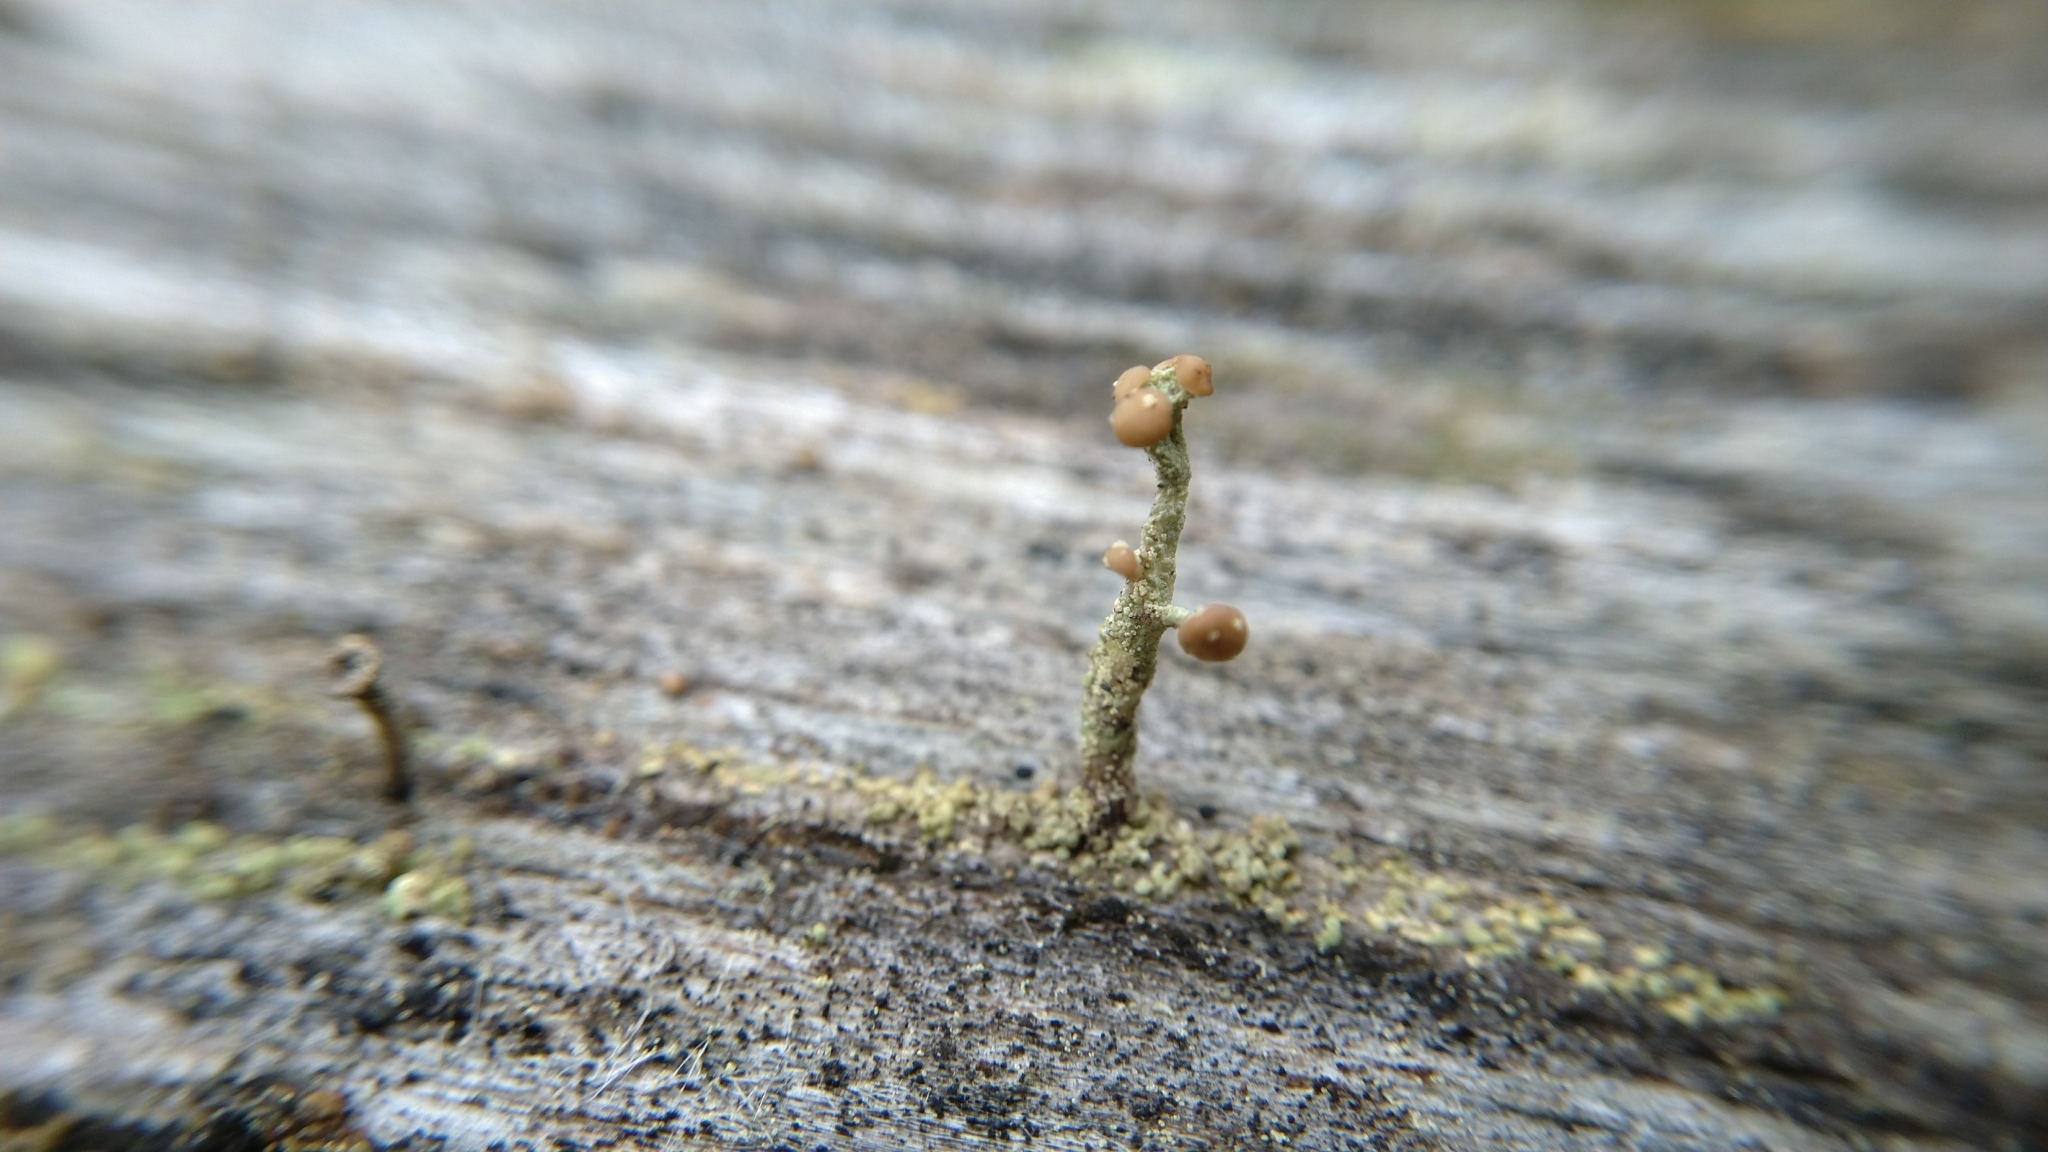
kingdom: Fungi
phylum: Ascomycota
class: Lecanoromycetes
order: Lecanorales
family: Cladoniaceae
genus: Cladonia
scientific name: Cladonia botrytes
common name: Stump lichen
